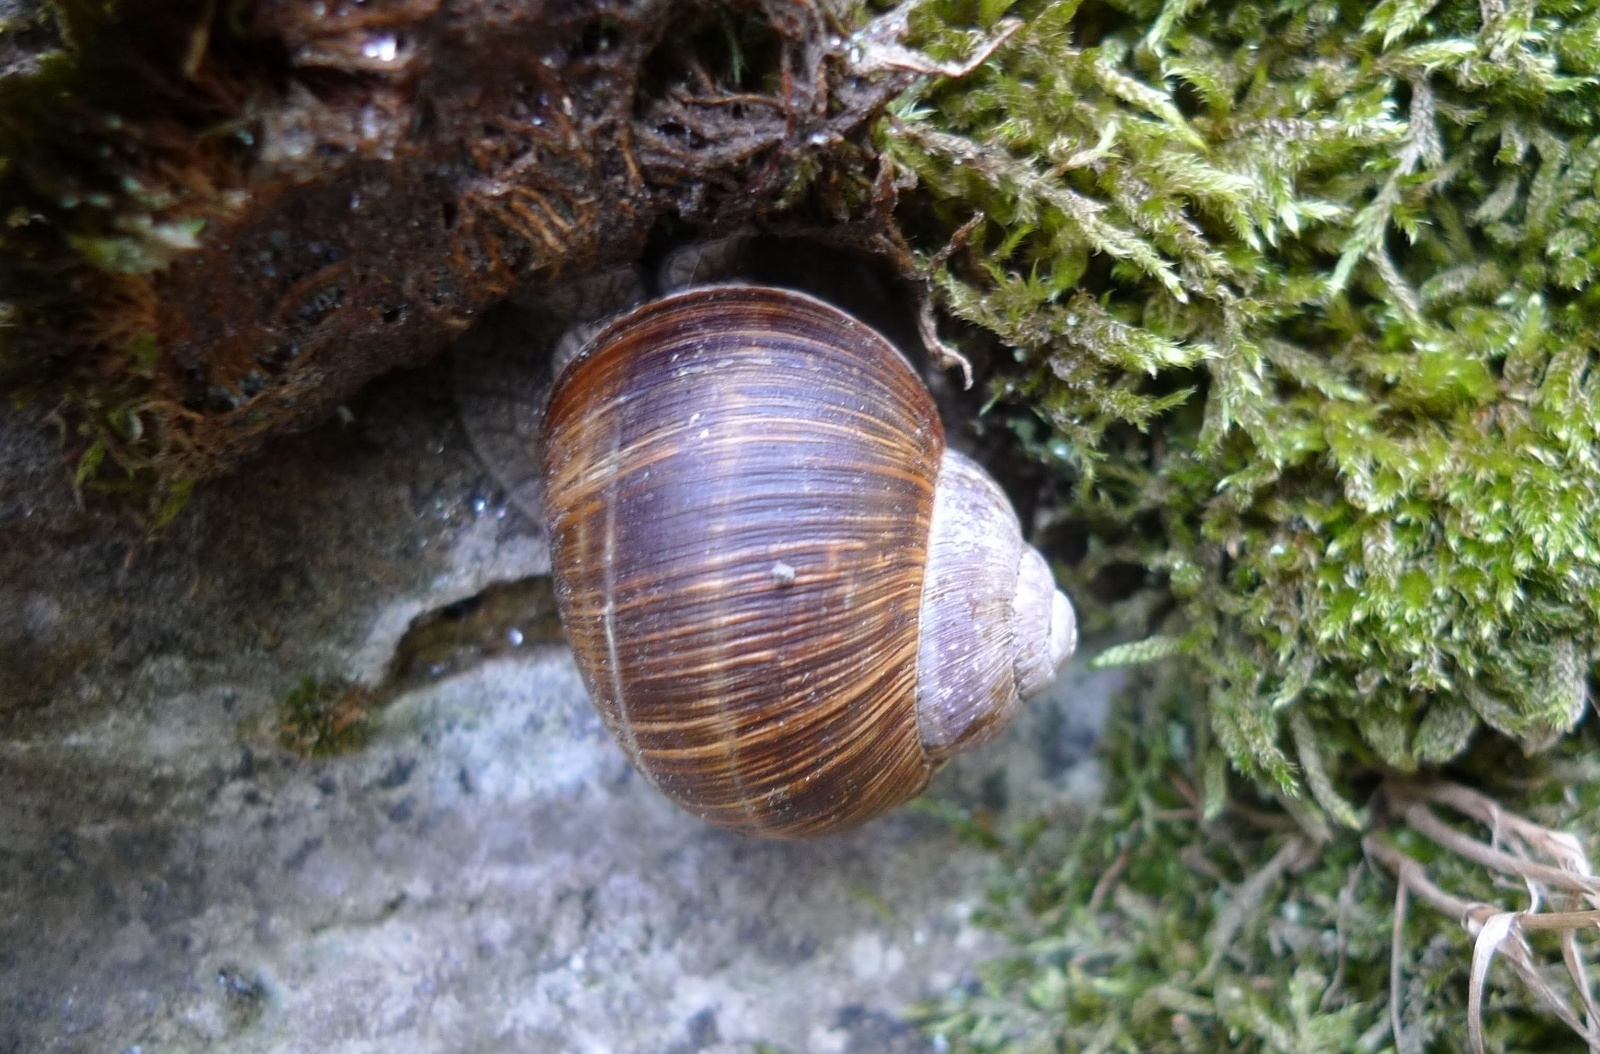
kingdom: Animalia
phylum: Mollusca
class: Gastropoda
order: Stylommatophora
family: Helicidae
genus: Helix
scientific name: Helix pomatia
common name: Roman snail
